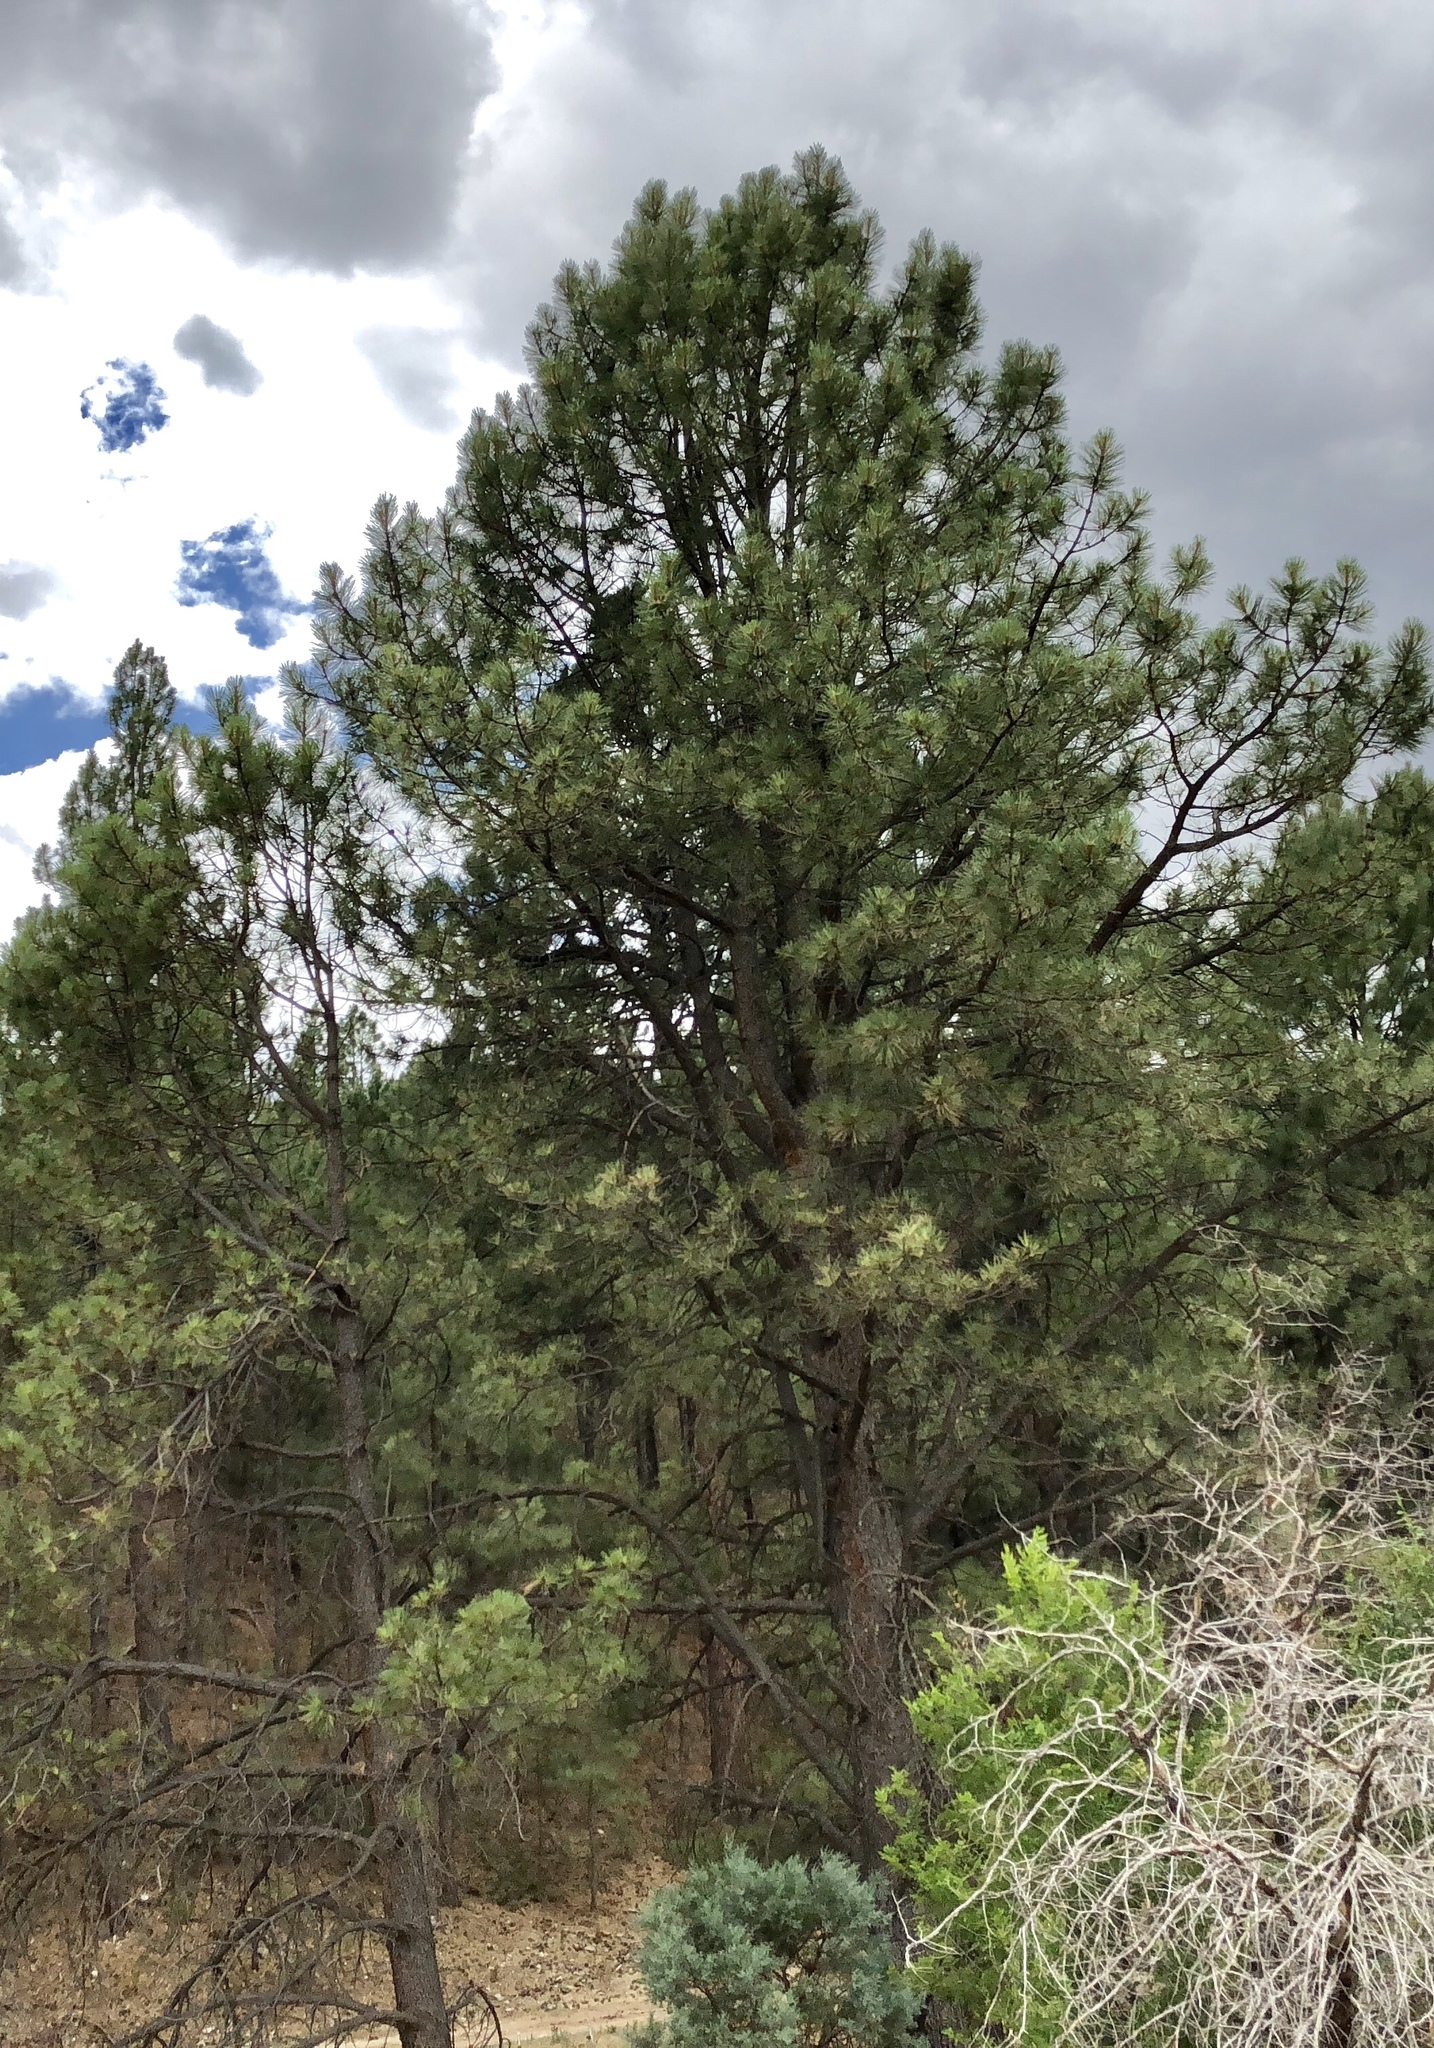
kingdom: Plantae
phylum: Tracheophyta
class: Pinopsida
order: Pinales
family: Pinaceae
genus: Pinus
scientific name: Pinus ponderosa
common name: Western yellow-pine
